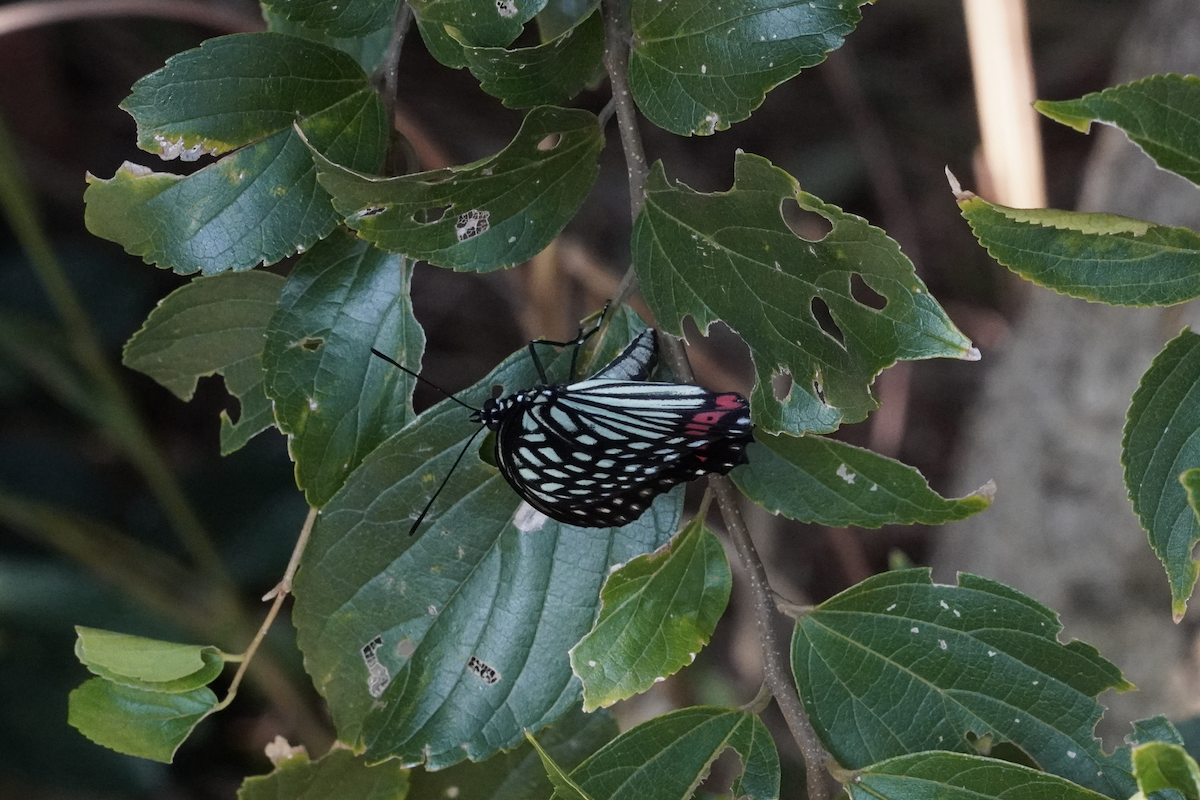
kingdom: Animalia
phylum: Arthropoda
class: Insecta
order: Lepidoptera
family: Nymphalidae
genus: Hestina
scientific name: Hestina assimilis
